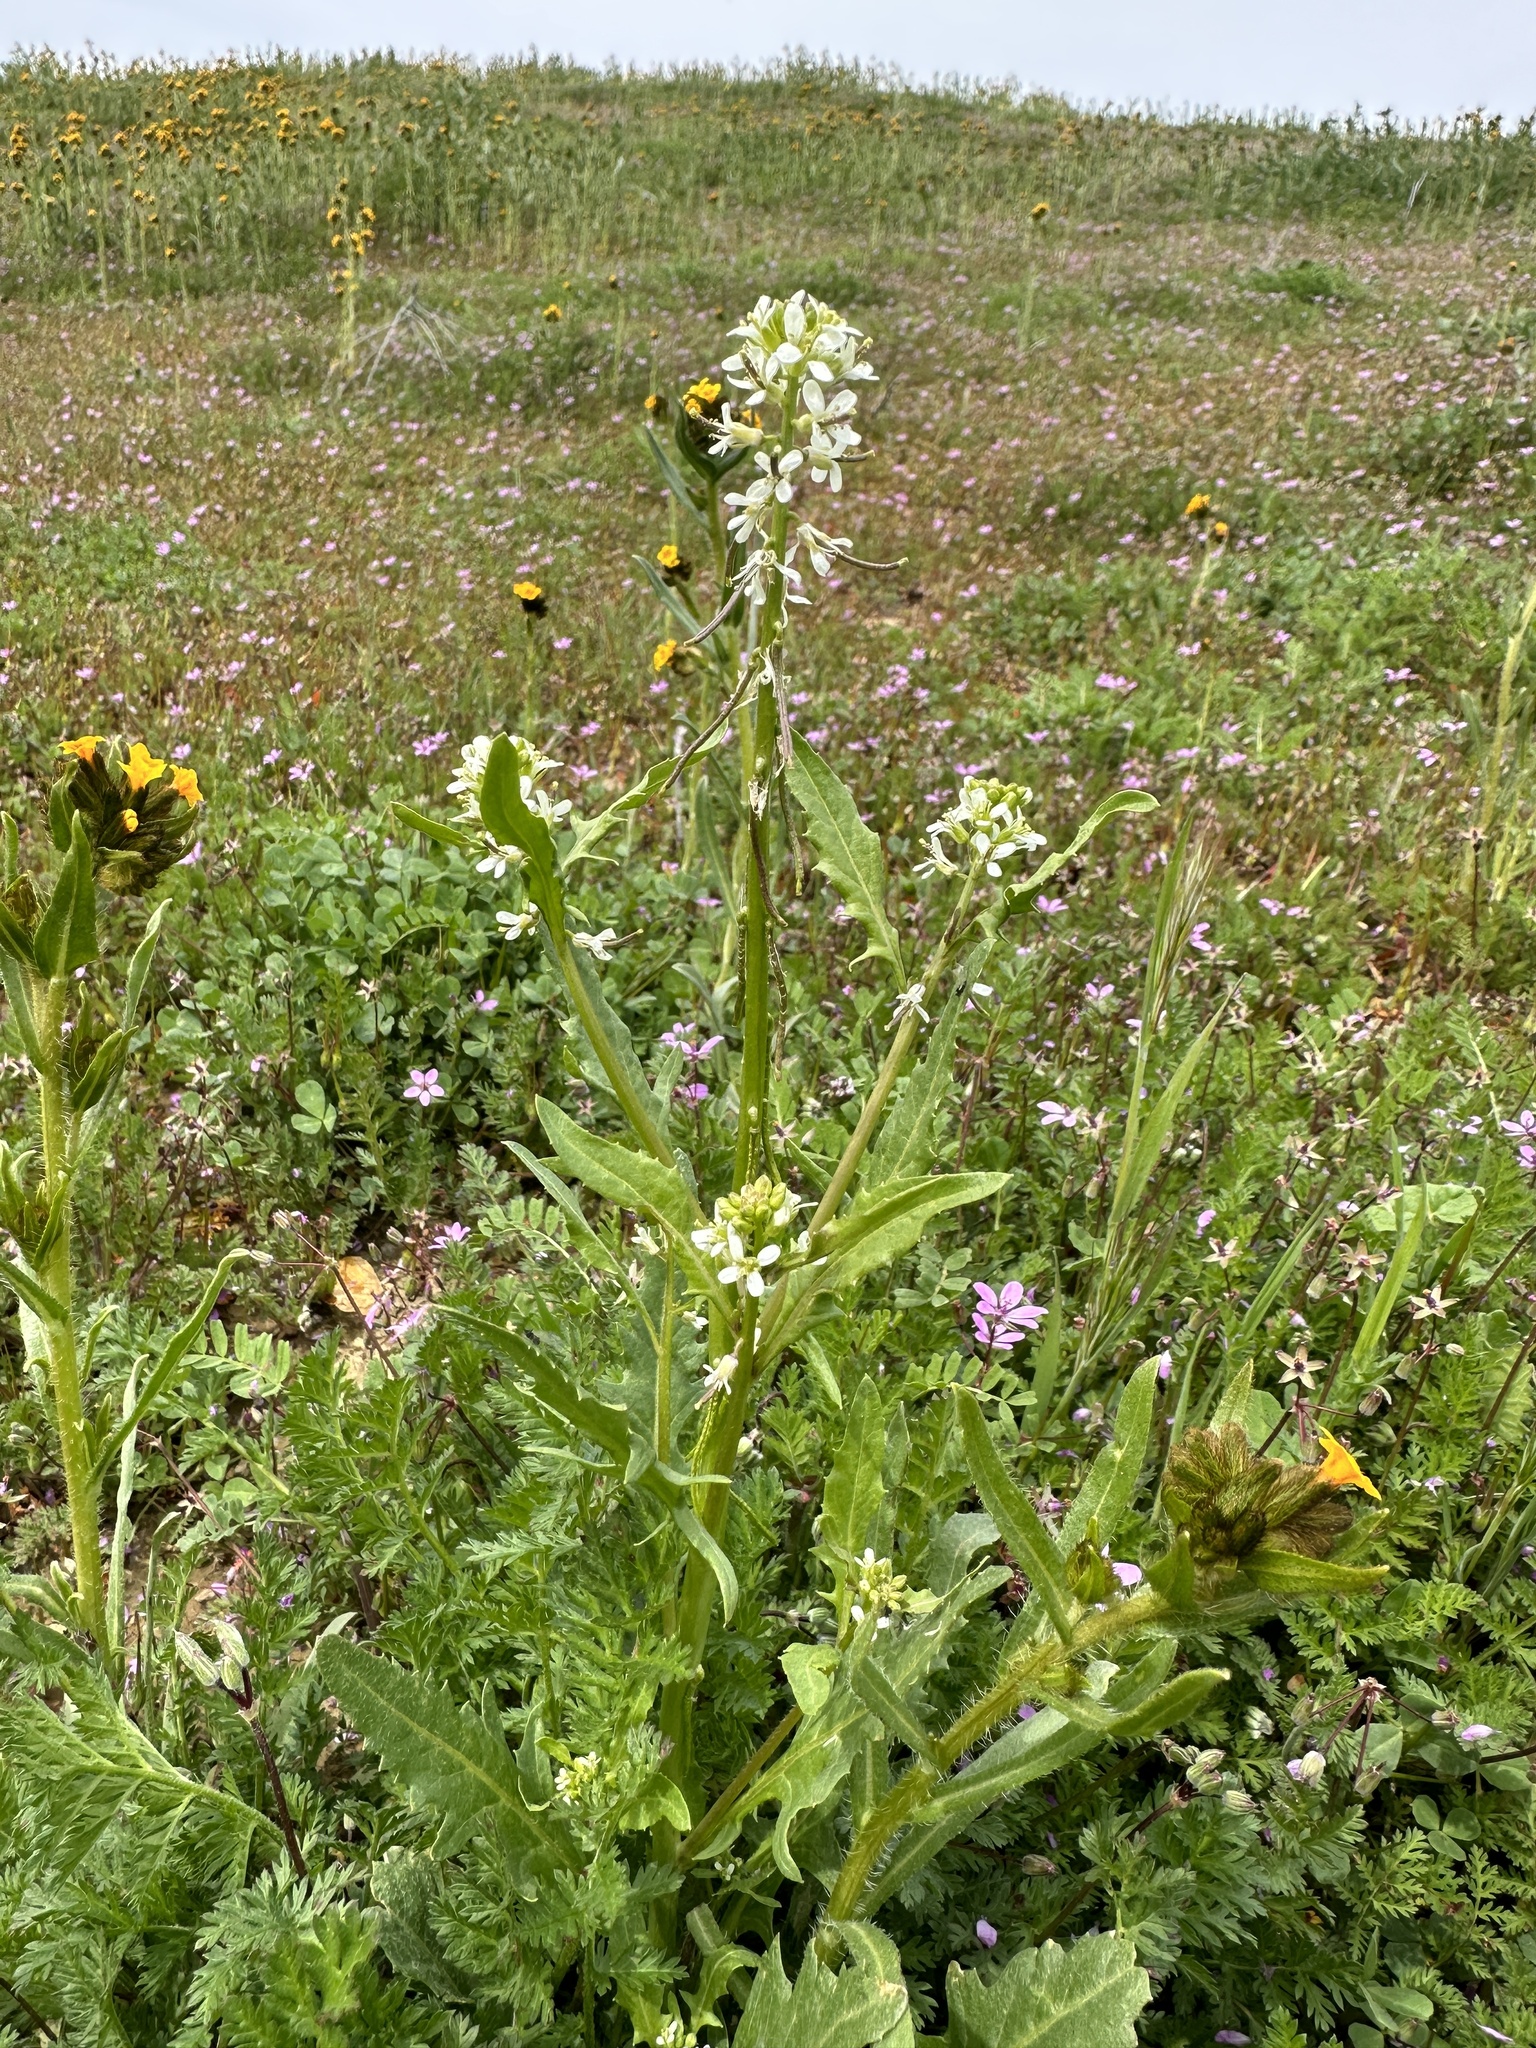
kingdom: Plantae
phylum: Tracheophyta
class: Magnoliopsida
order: Brassicales
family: Brassicaceae
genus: Streptanthus
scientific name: Streptanthus lasiophyllus
